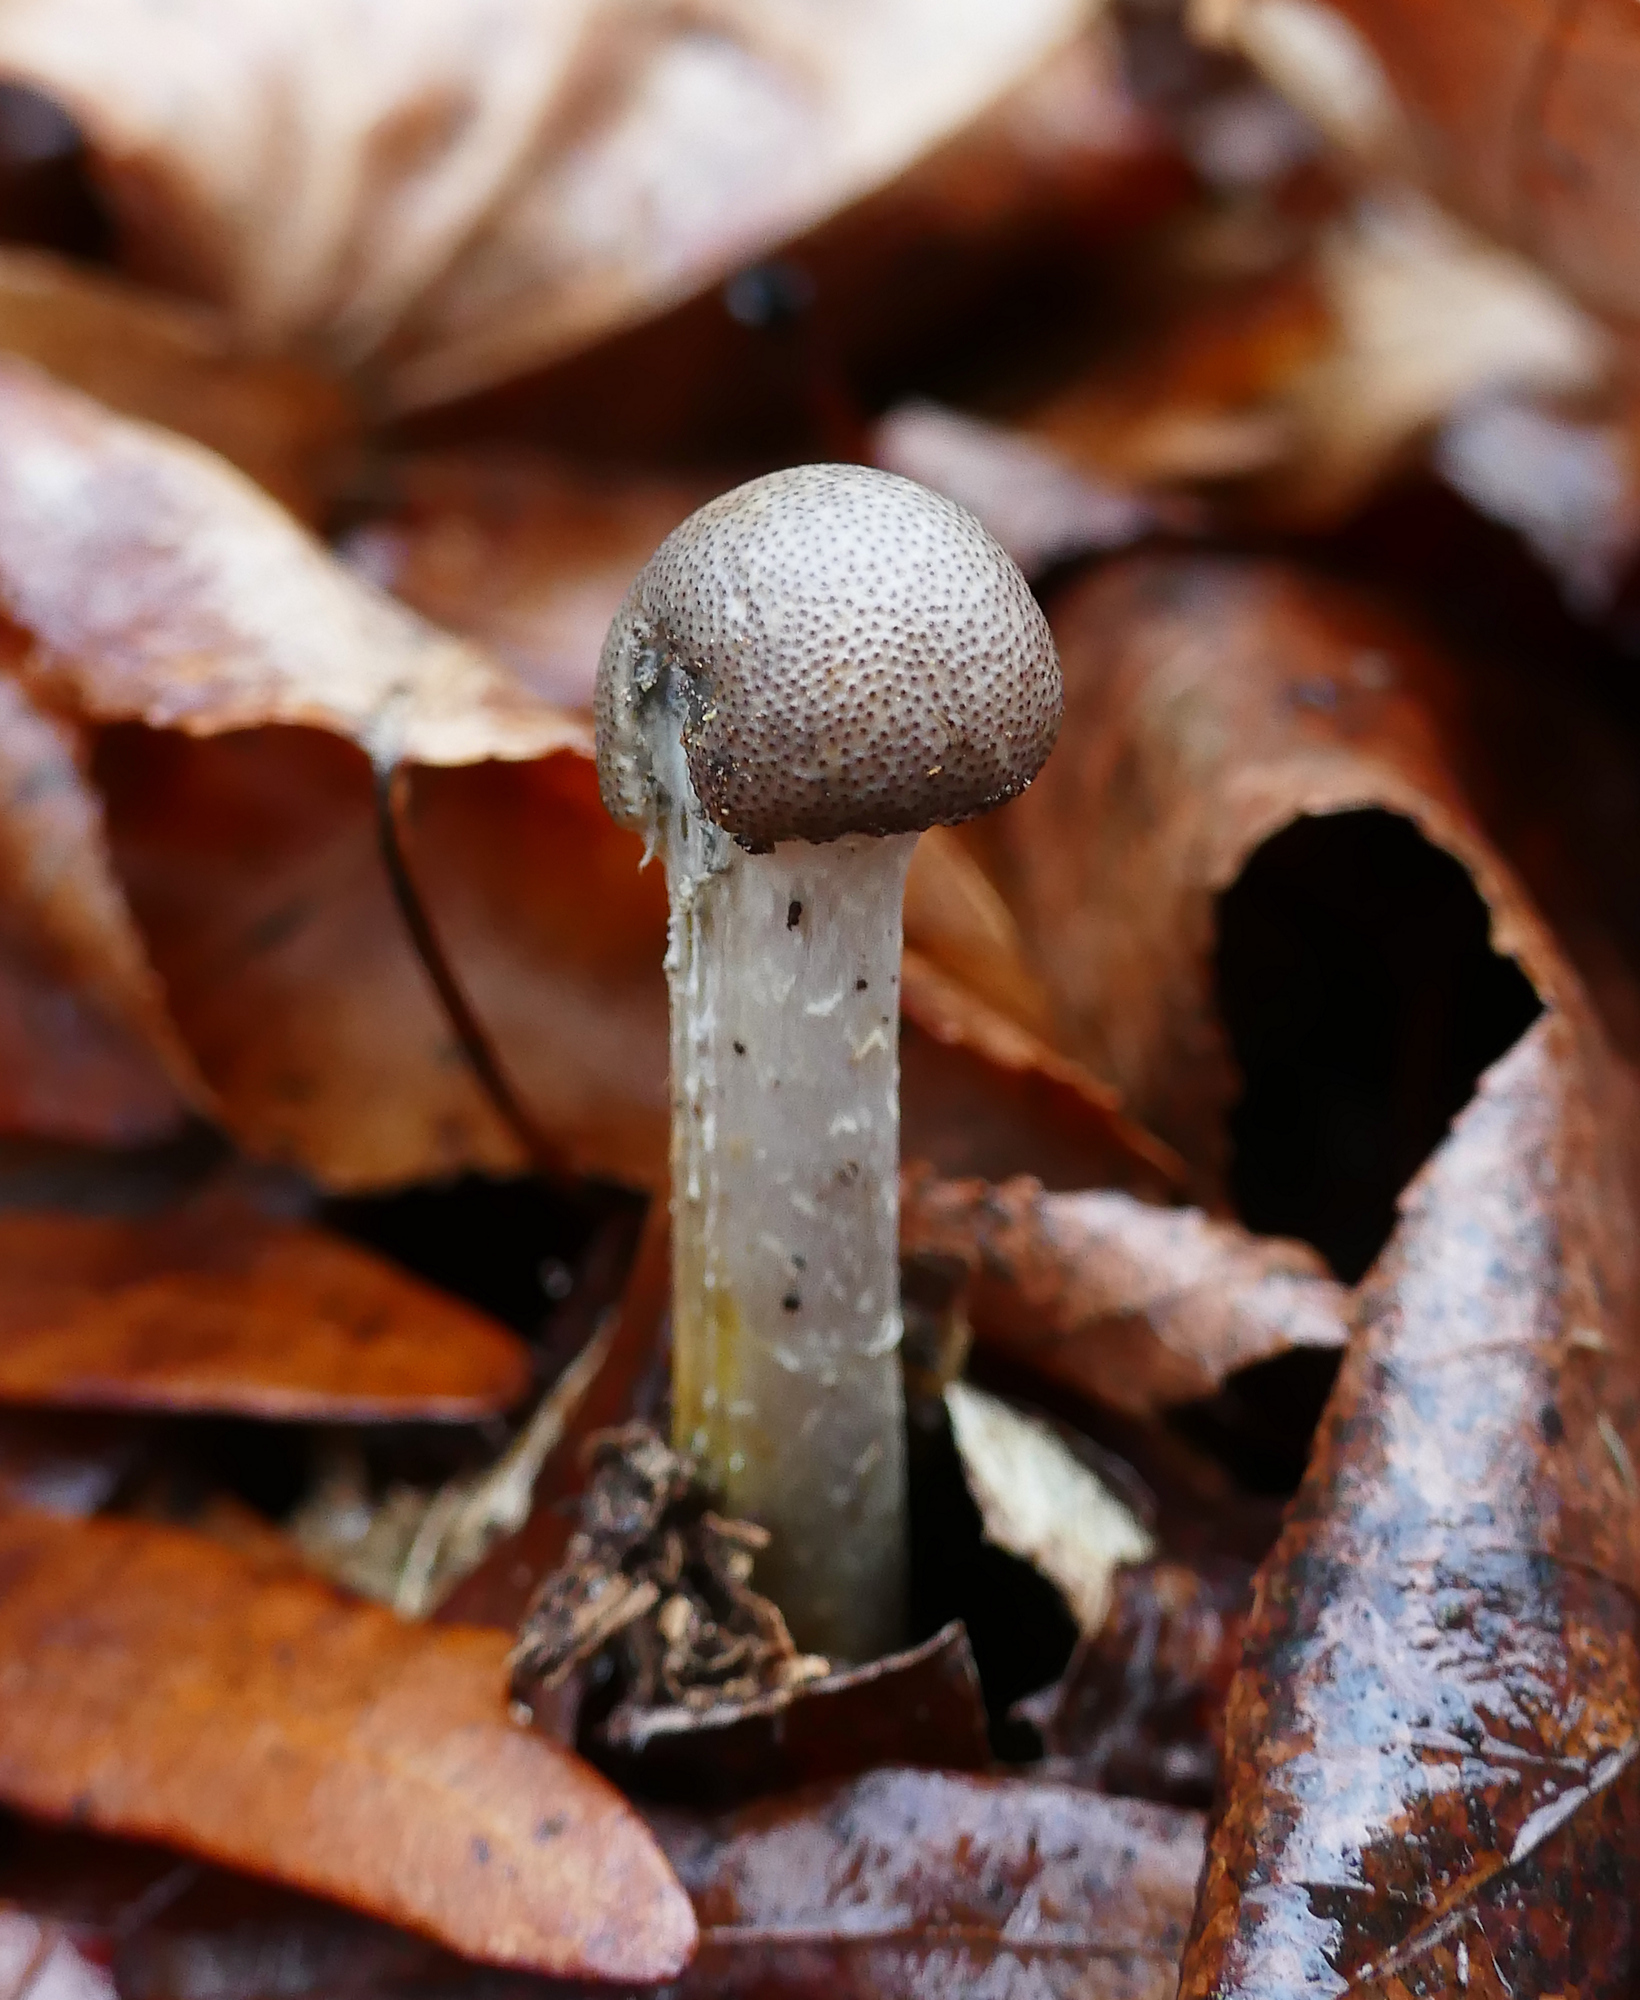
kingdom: Fungi
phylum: Ascomycota
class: Sordariomycetes
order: Hypocreales
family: Ophiocordycipitaceae
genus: Tolypocladium
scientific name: Tolypocladium rouxii
